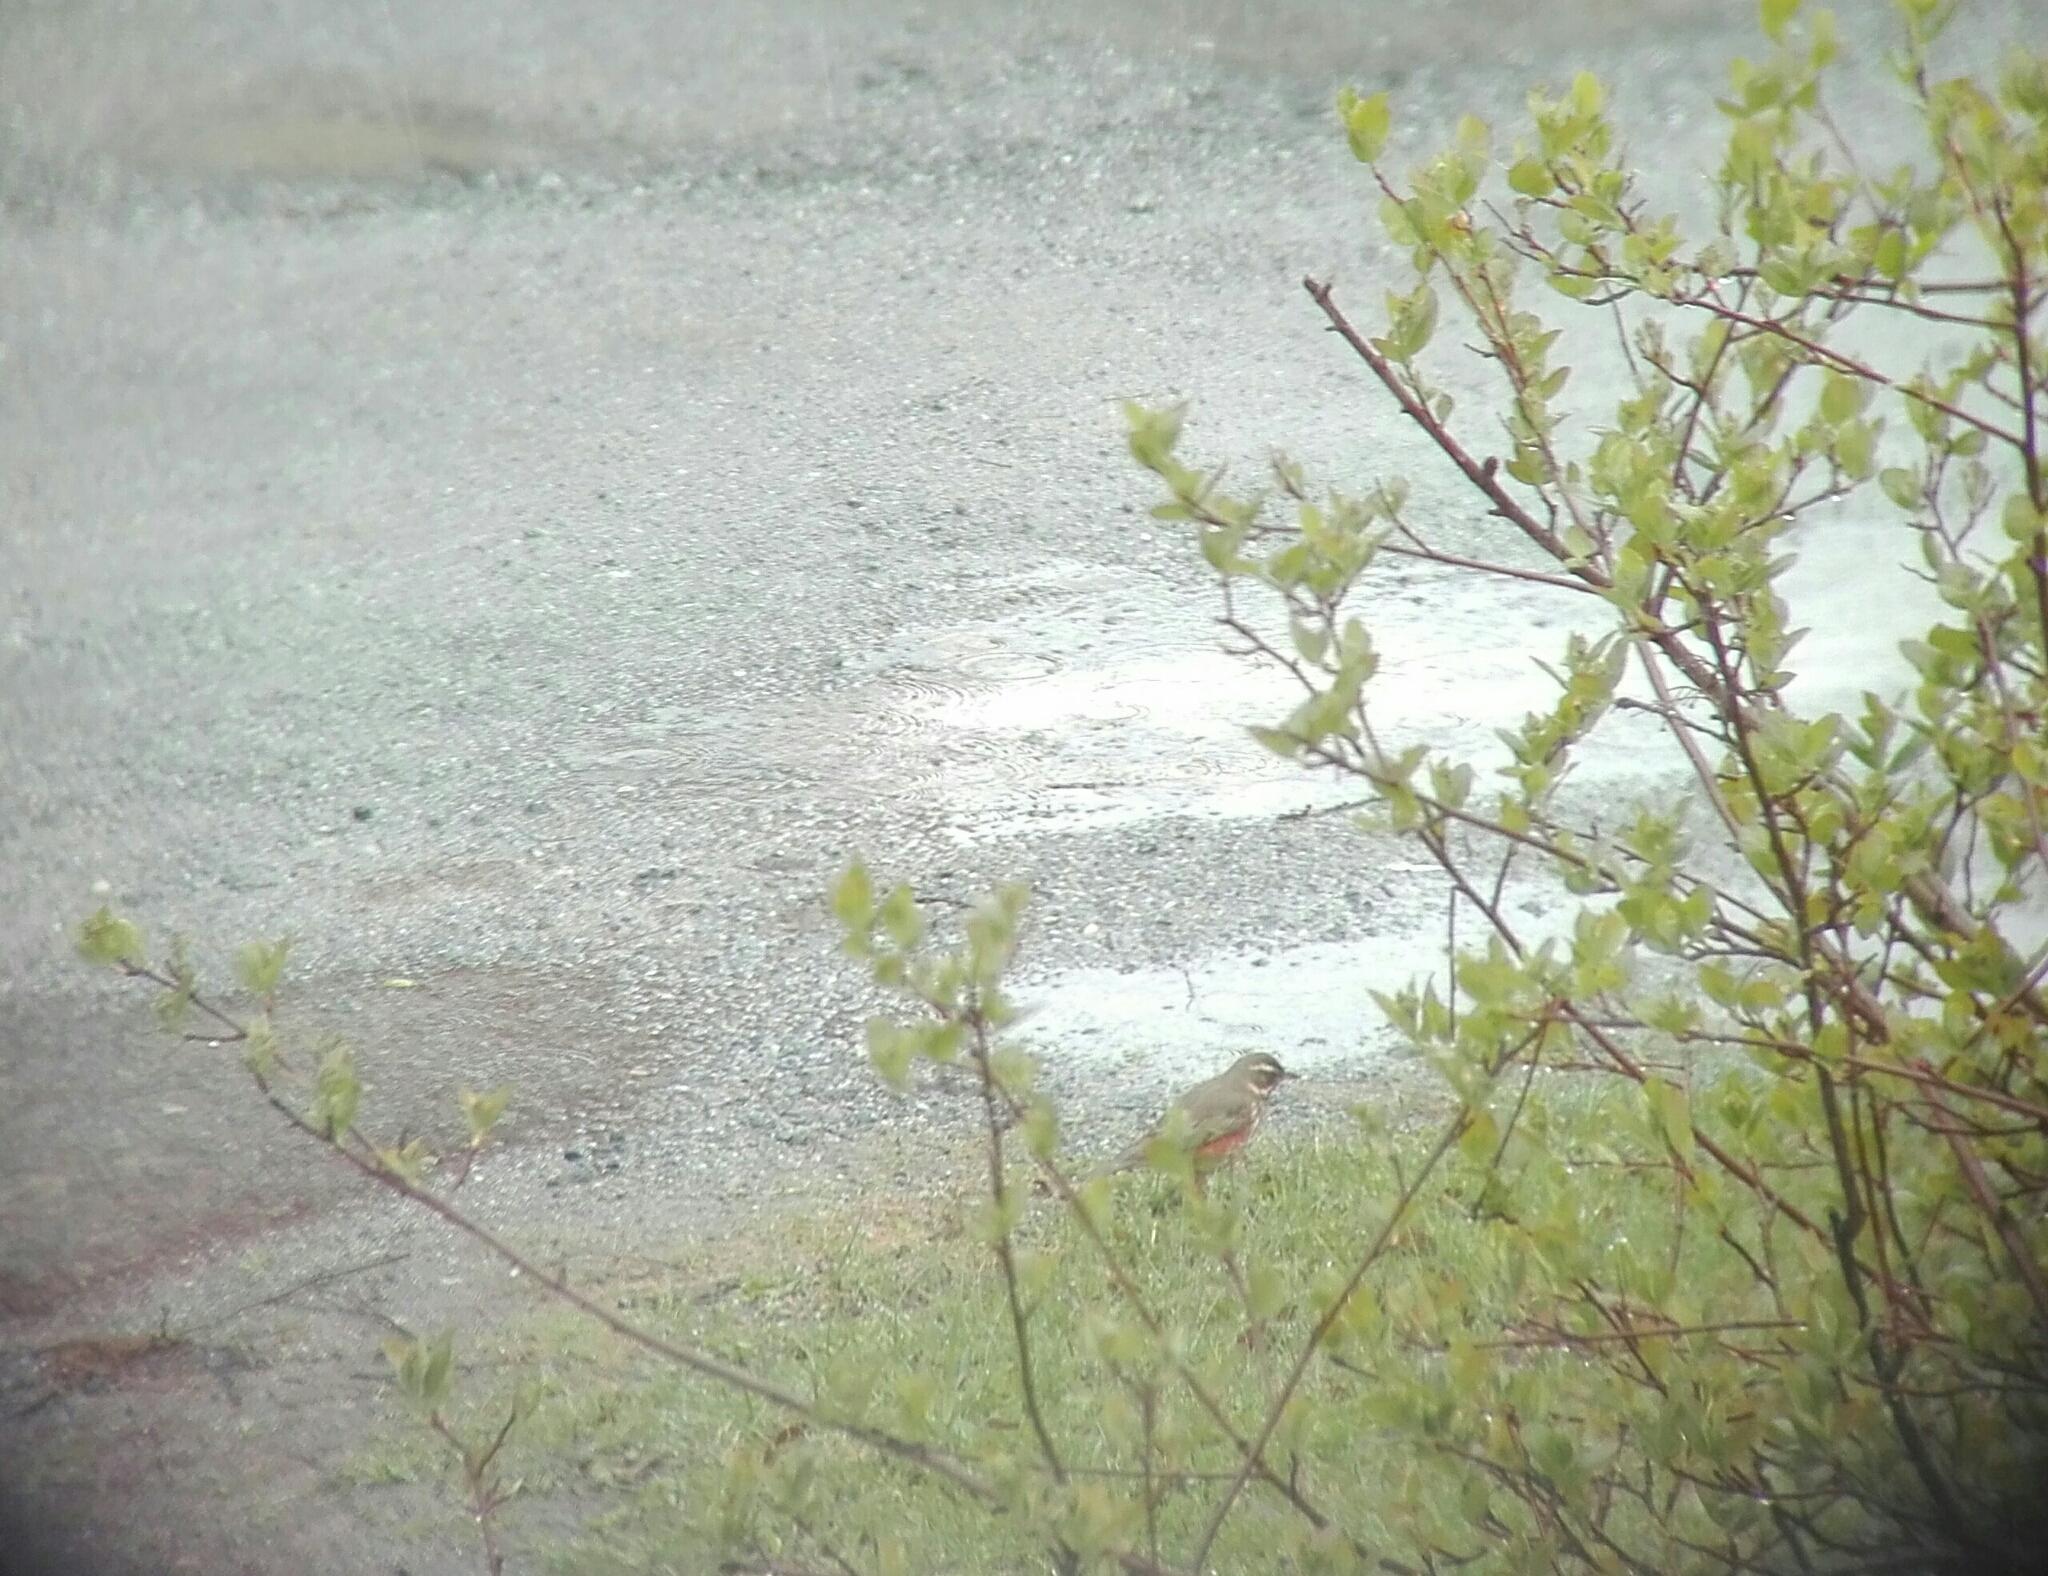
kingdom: Animalia
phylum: Chordata
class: Aves
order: Passeriformes
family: Turdidae
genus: Turdus
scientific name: Turdus iliacus
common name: Redwing
